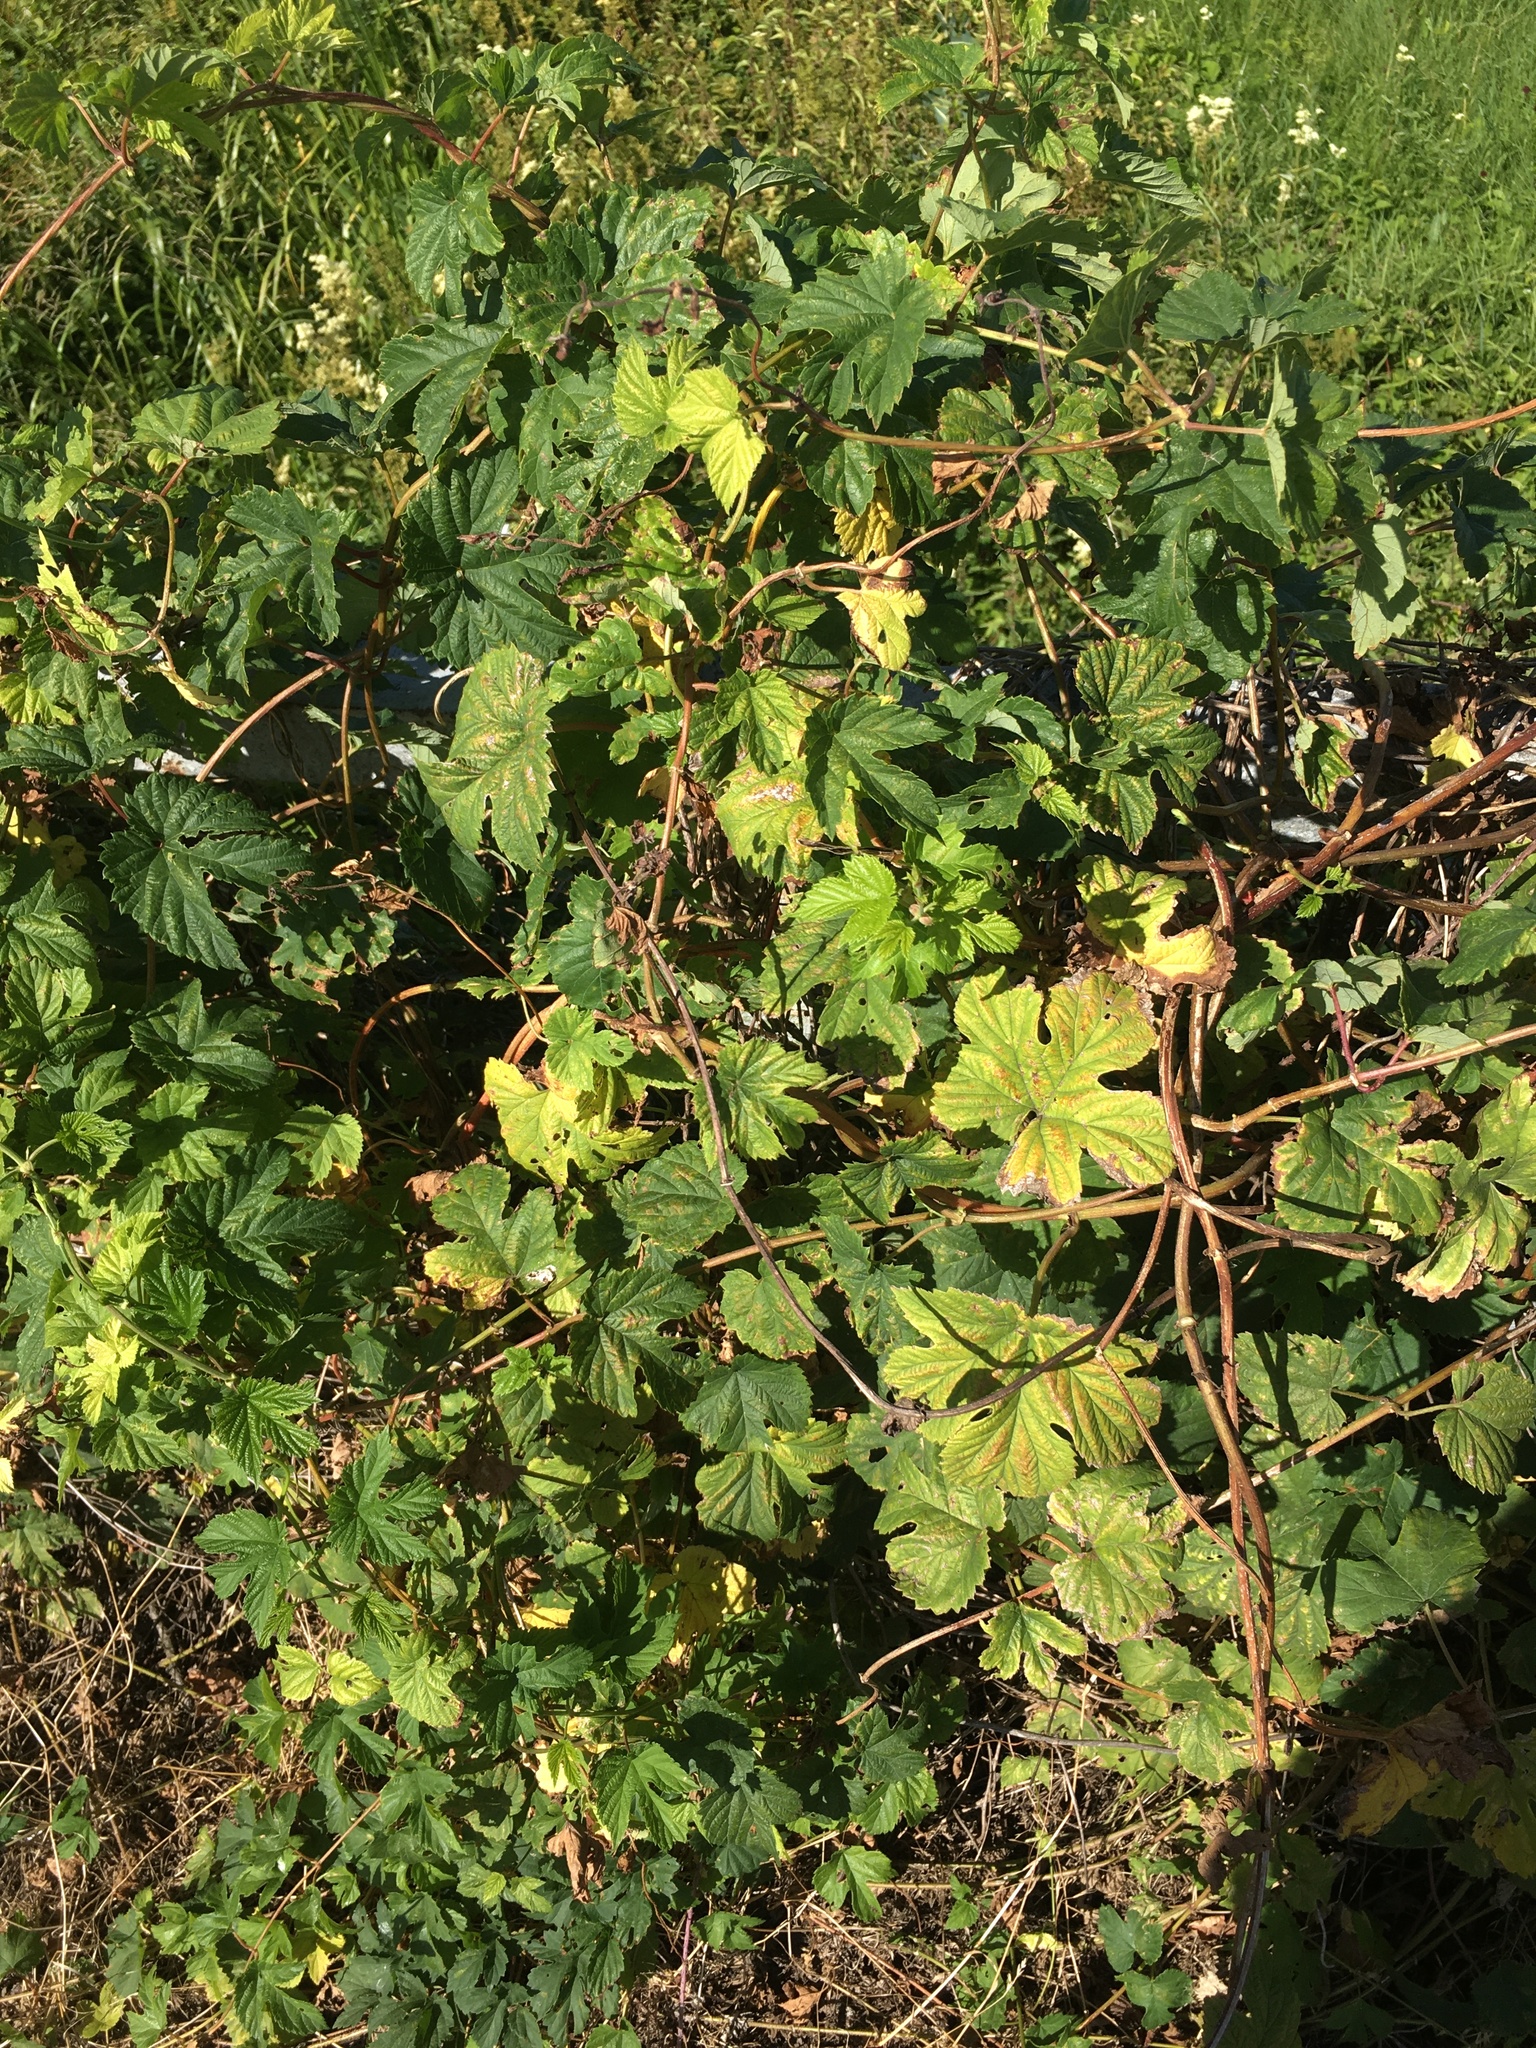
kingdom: Plantae
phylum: Tracheophyta
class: Magnoliopsida
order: Rosales
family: Cannabaceae
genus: Humulus
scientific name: Humulus lupulus
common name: Hop
